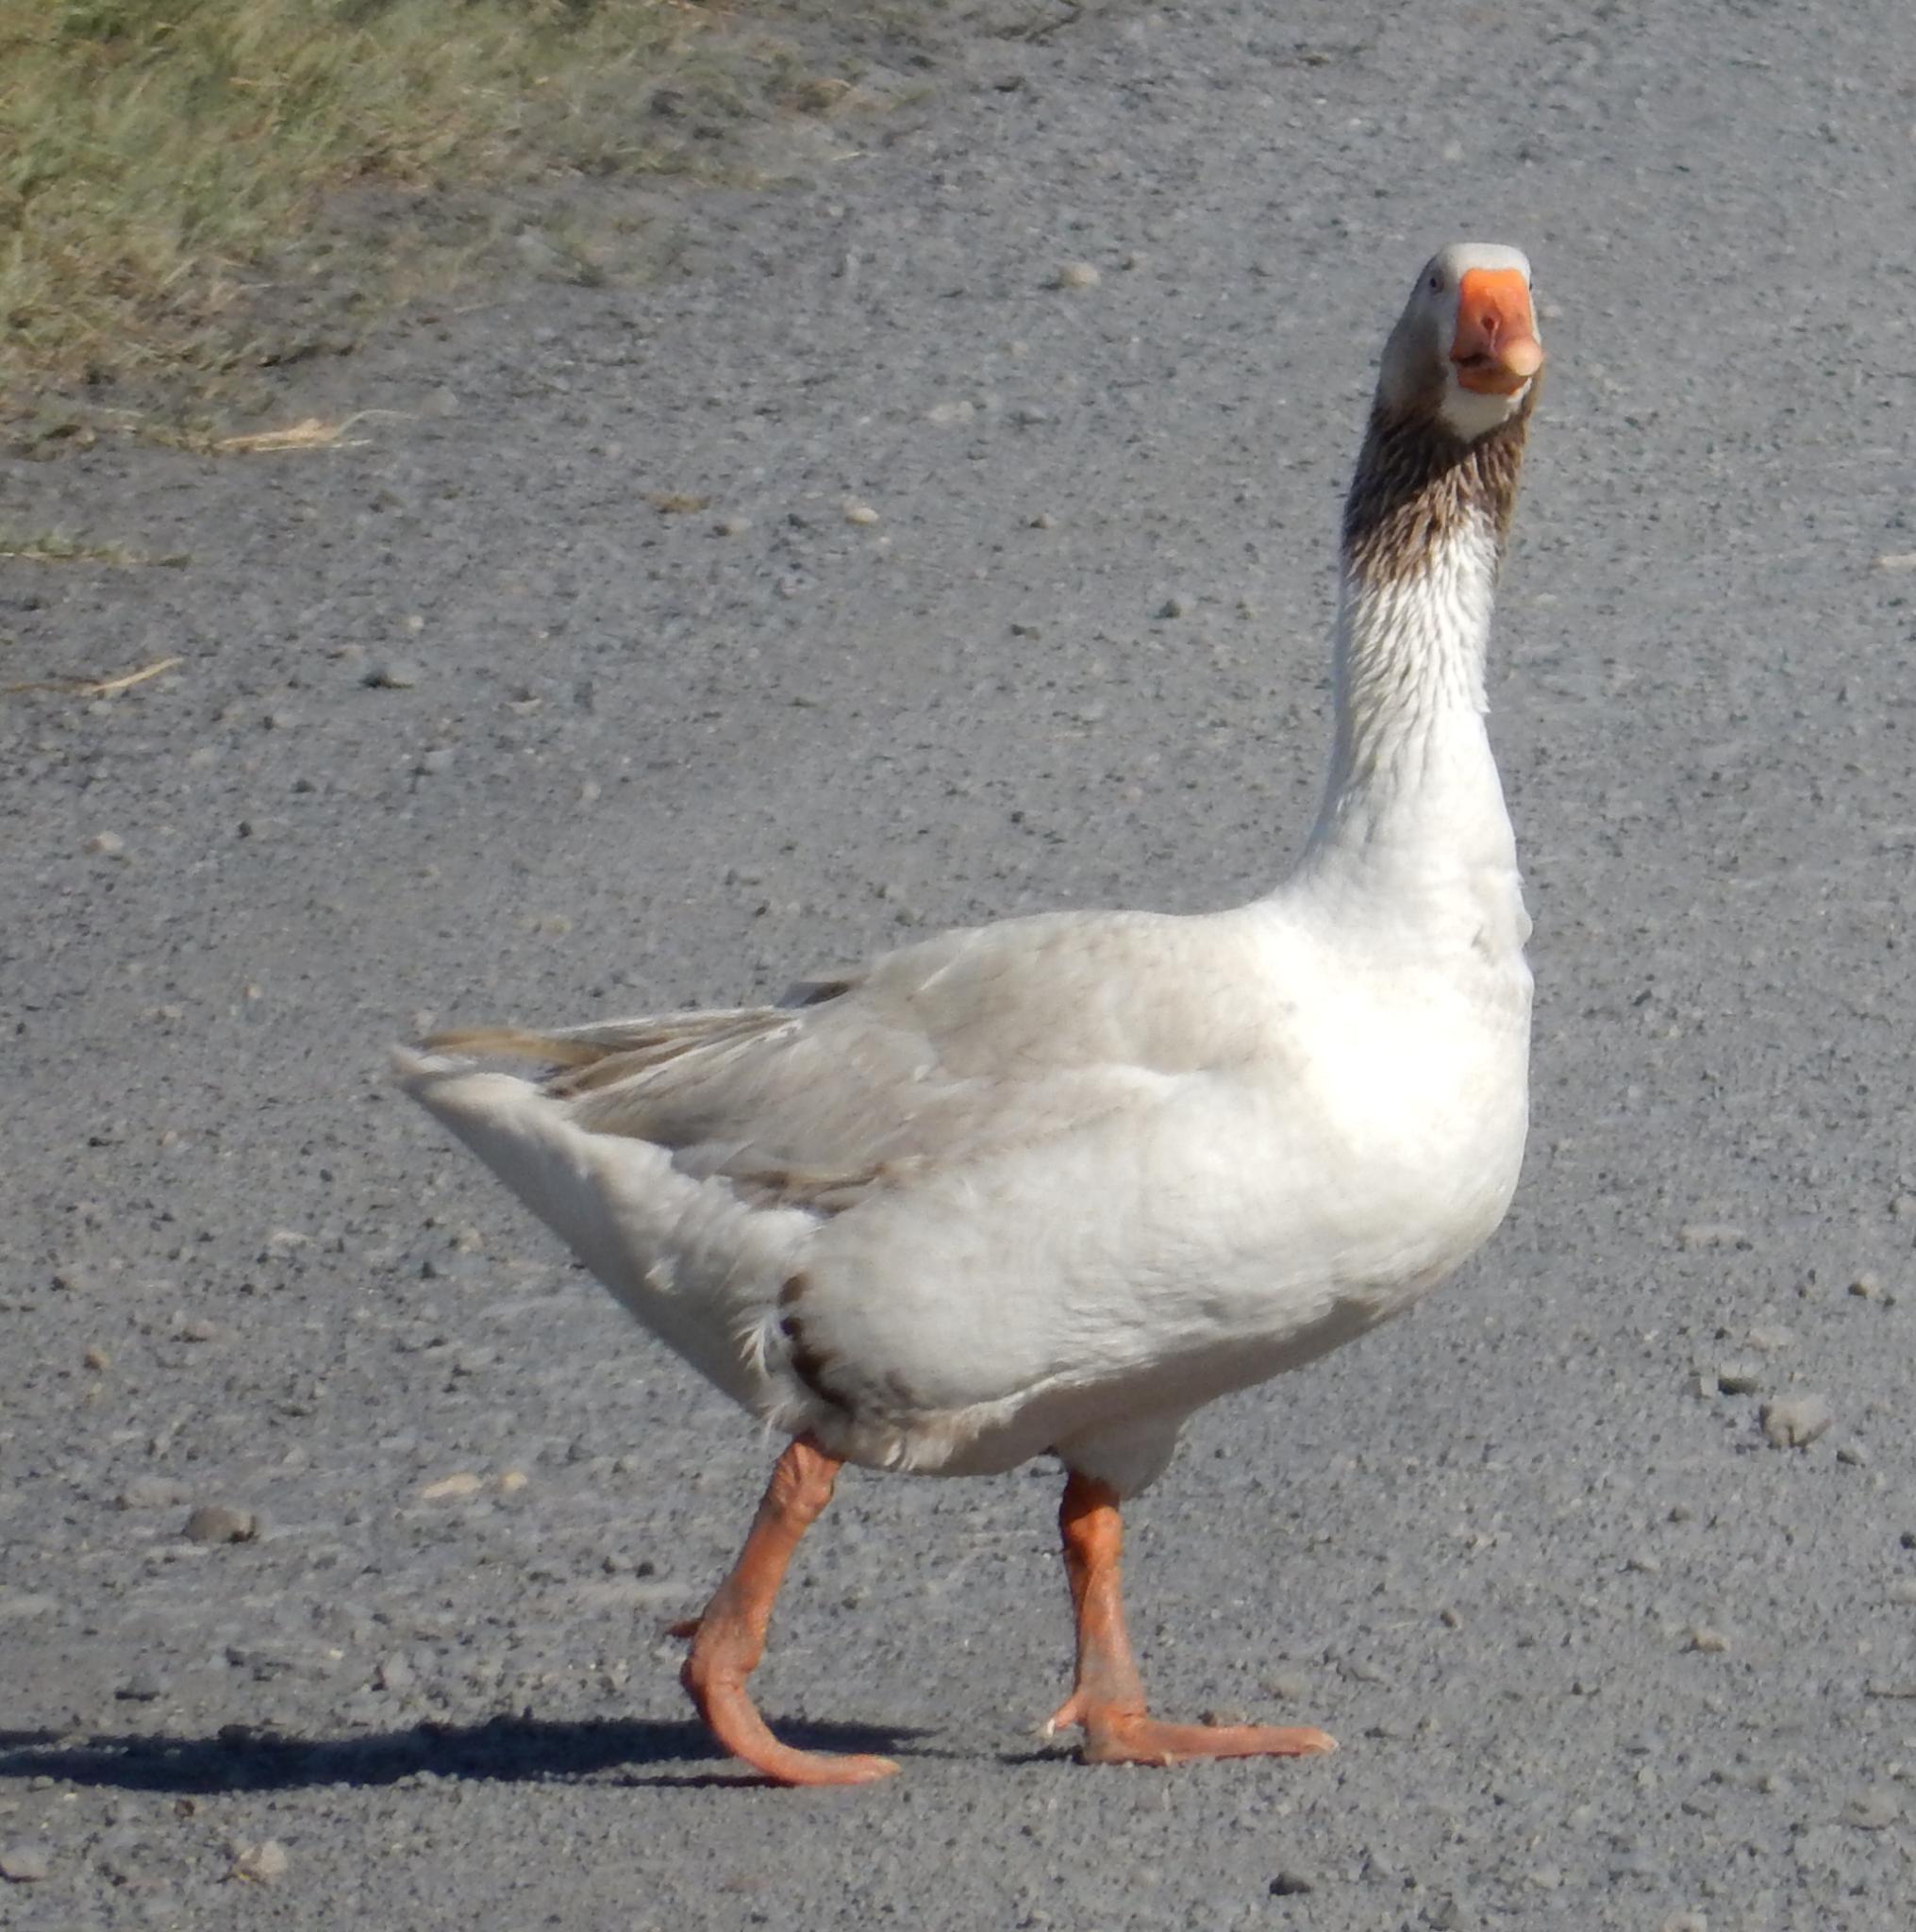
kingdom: Animalia
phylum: Chordata
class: Aves
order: Anseriformes
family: Anatidae
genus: Anser
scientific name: Anser anser
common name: Greylag goose
